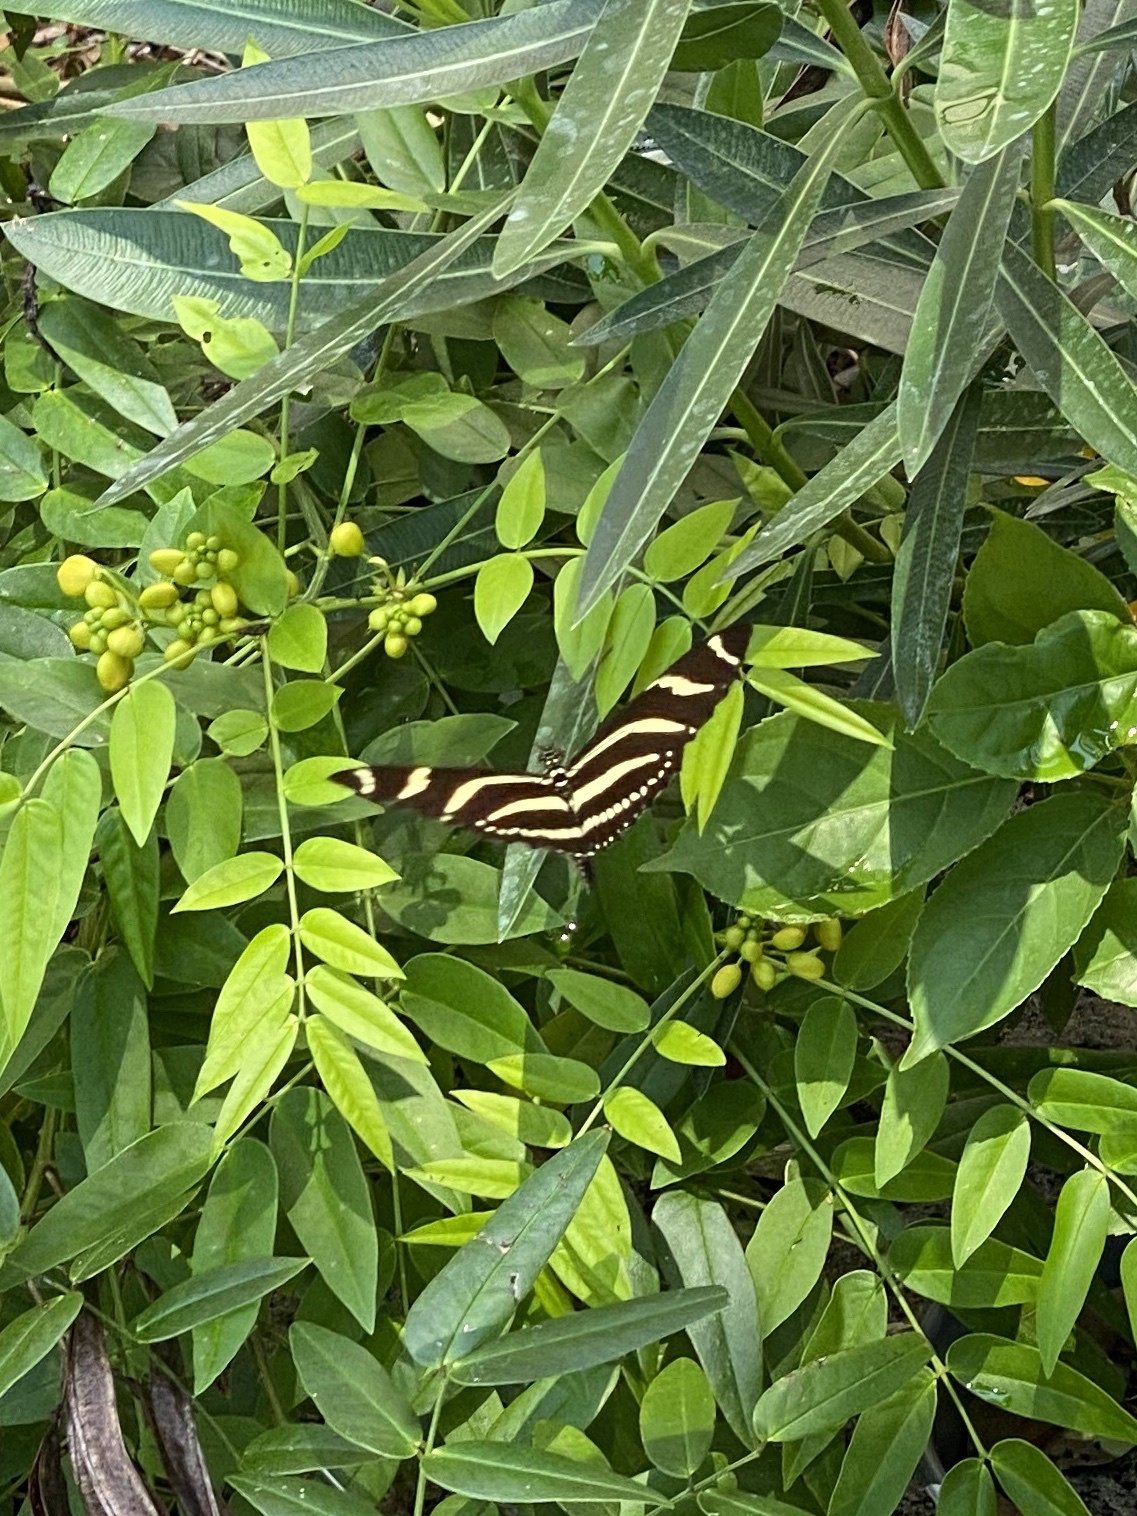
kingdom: Animalia
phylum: Arthropoda
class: Insecta
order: Lepidoptera
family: Nymphalidae
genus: Heliconius
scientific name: Heliconius charithonia
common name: Zebra long wing
